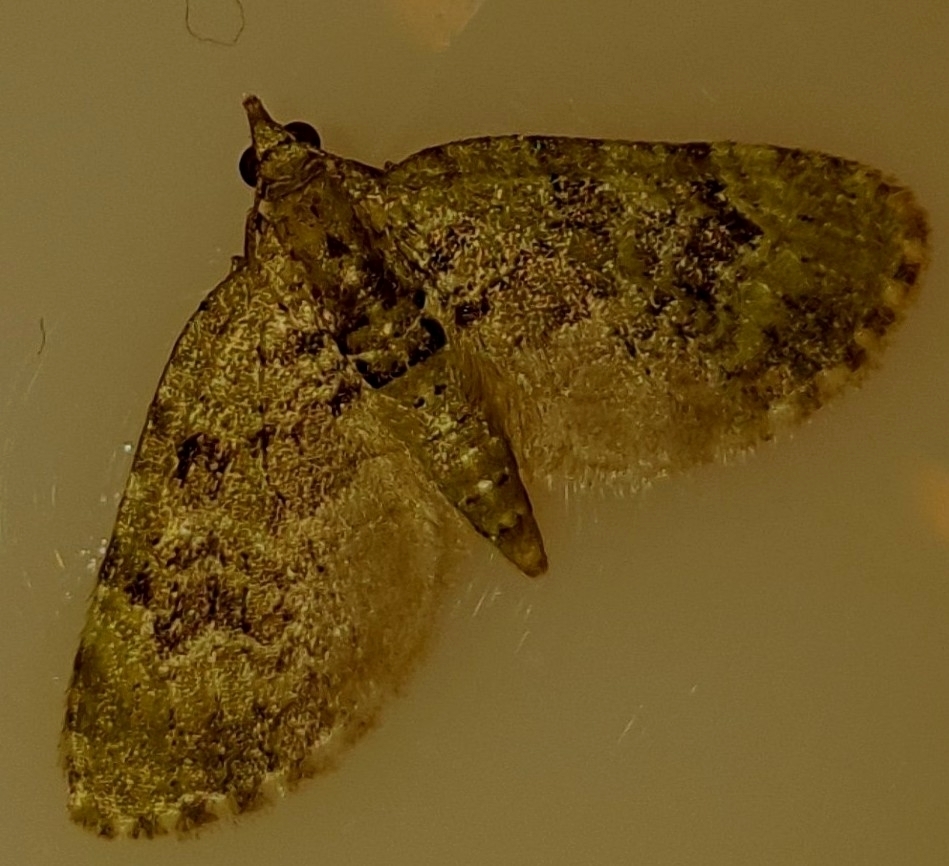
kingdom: Animalia
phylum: Arthropoda
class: Insecta
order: Lepidoptera
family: Geometridae
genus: Chloroclystis
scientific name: Chloroclystis v-ata
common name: V-pug
